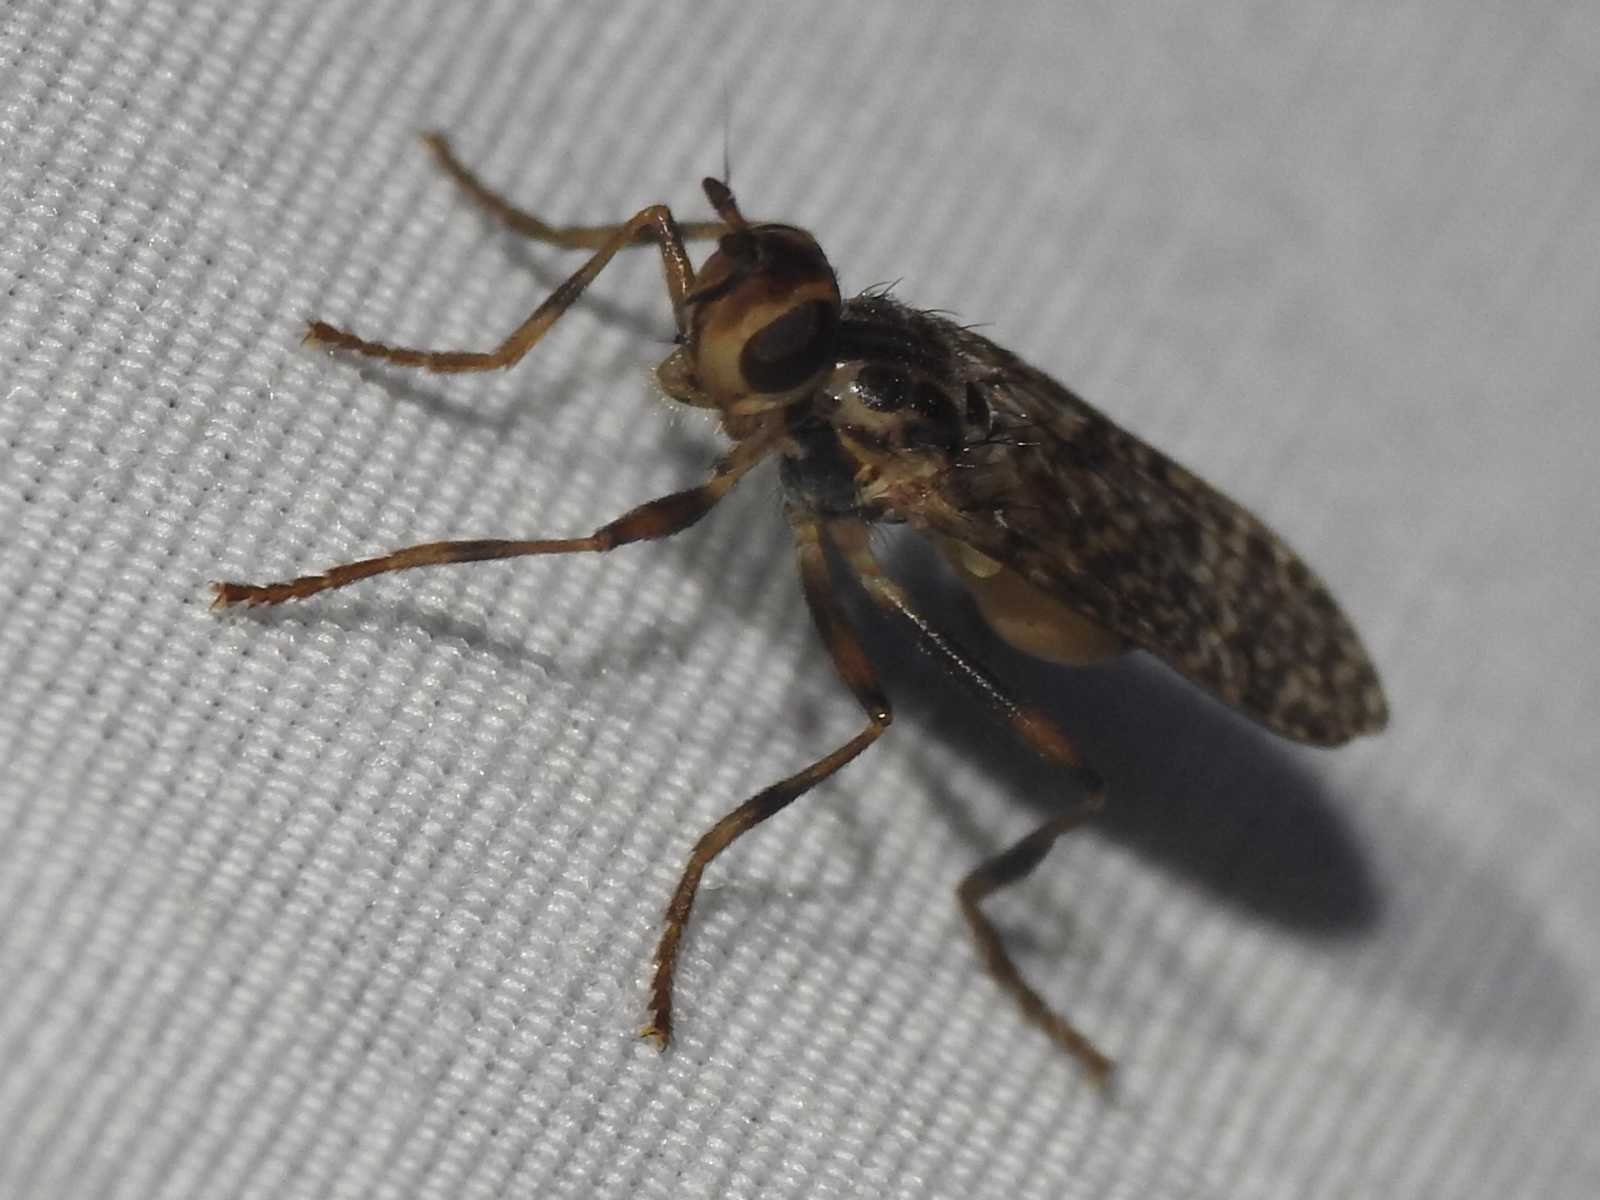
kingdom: Animalia
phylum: Arthropoda
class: Insecta
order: Diptera
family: Pyrgotidae
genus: Boreothrinax
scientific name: Boreothrinax
